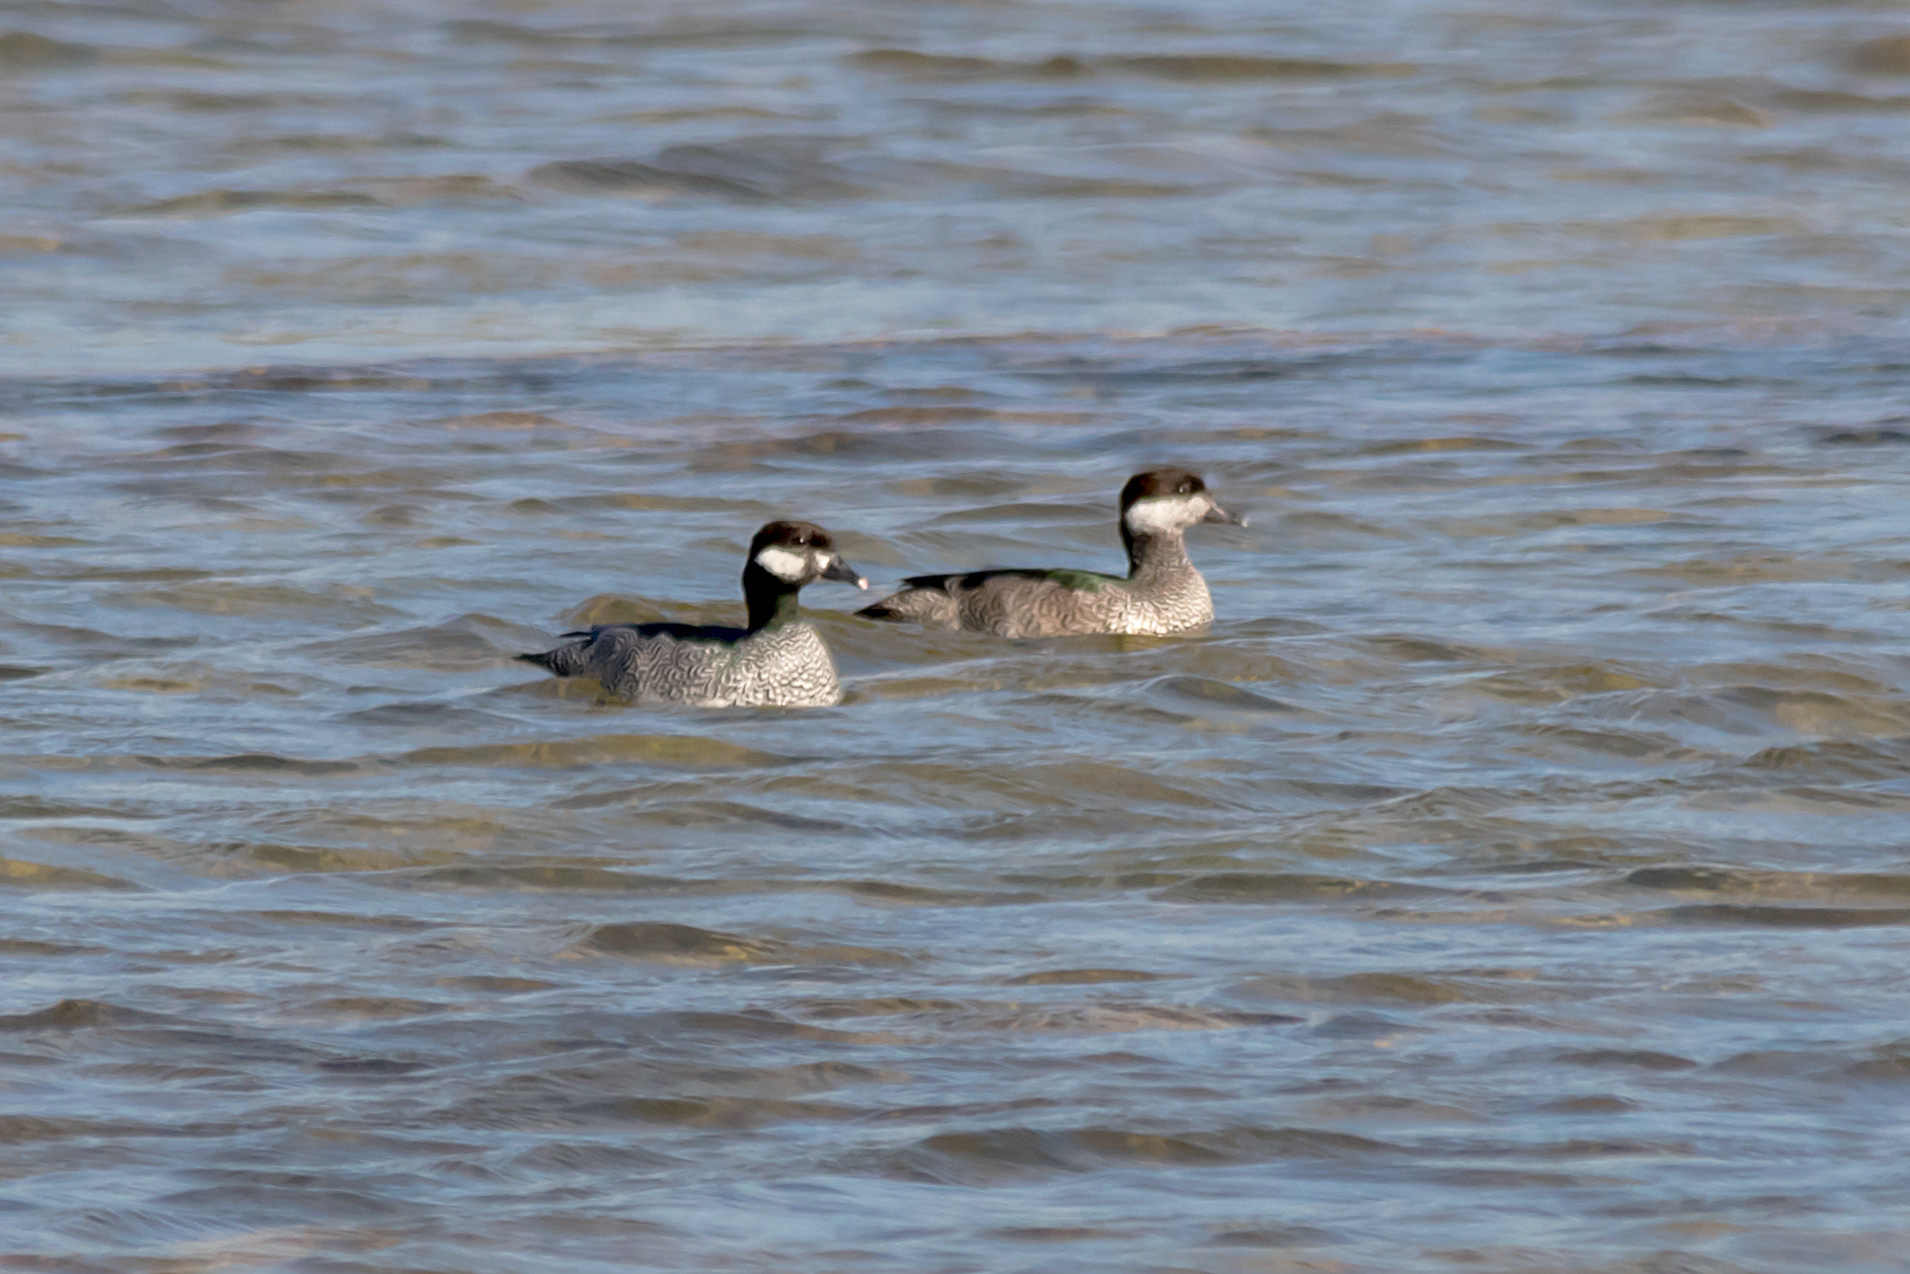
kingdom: Animalia
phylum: Chordata
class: Aves
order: Anseriformes
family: Anatidae
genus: Nettapus
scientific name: Nettapus pulchellus
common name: Green pygmy-goose
